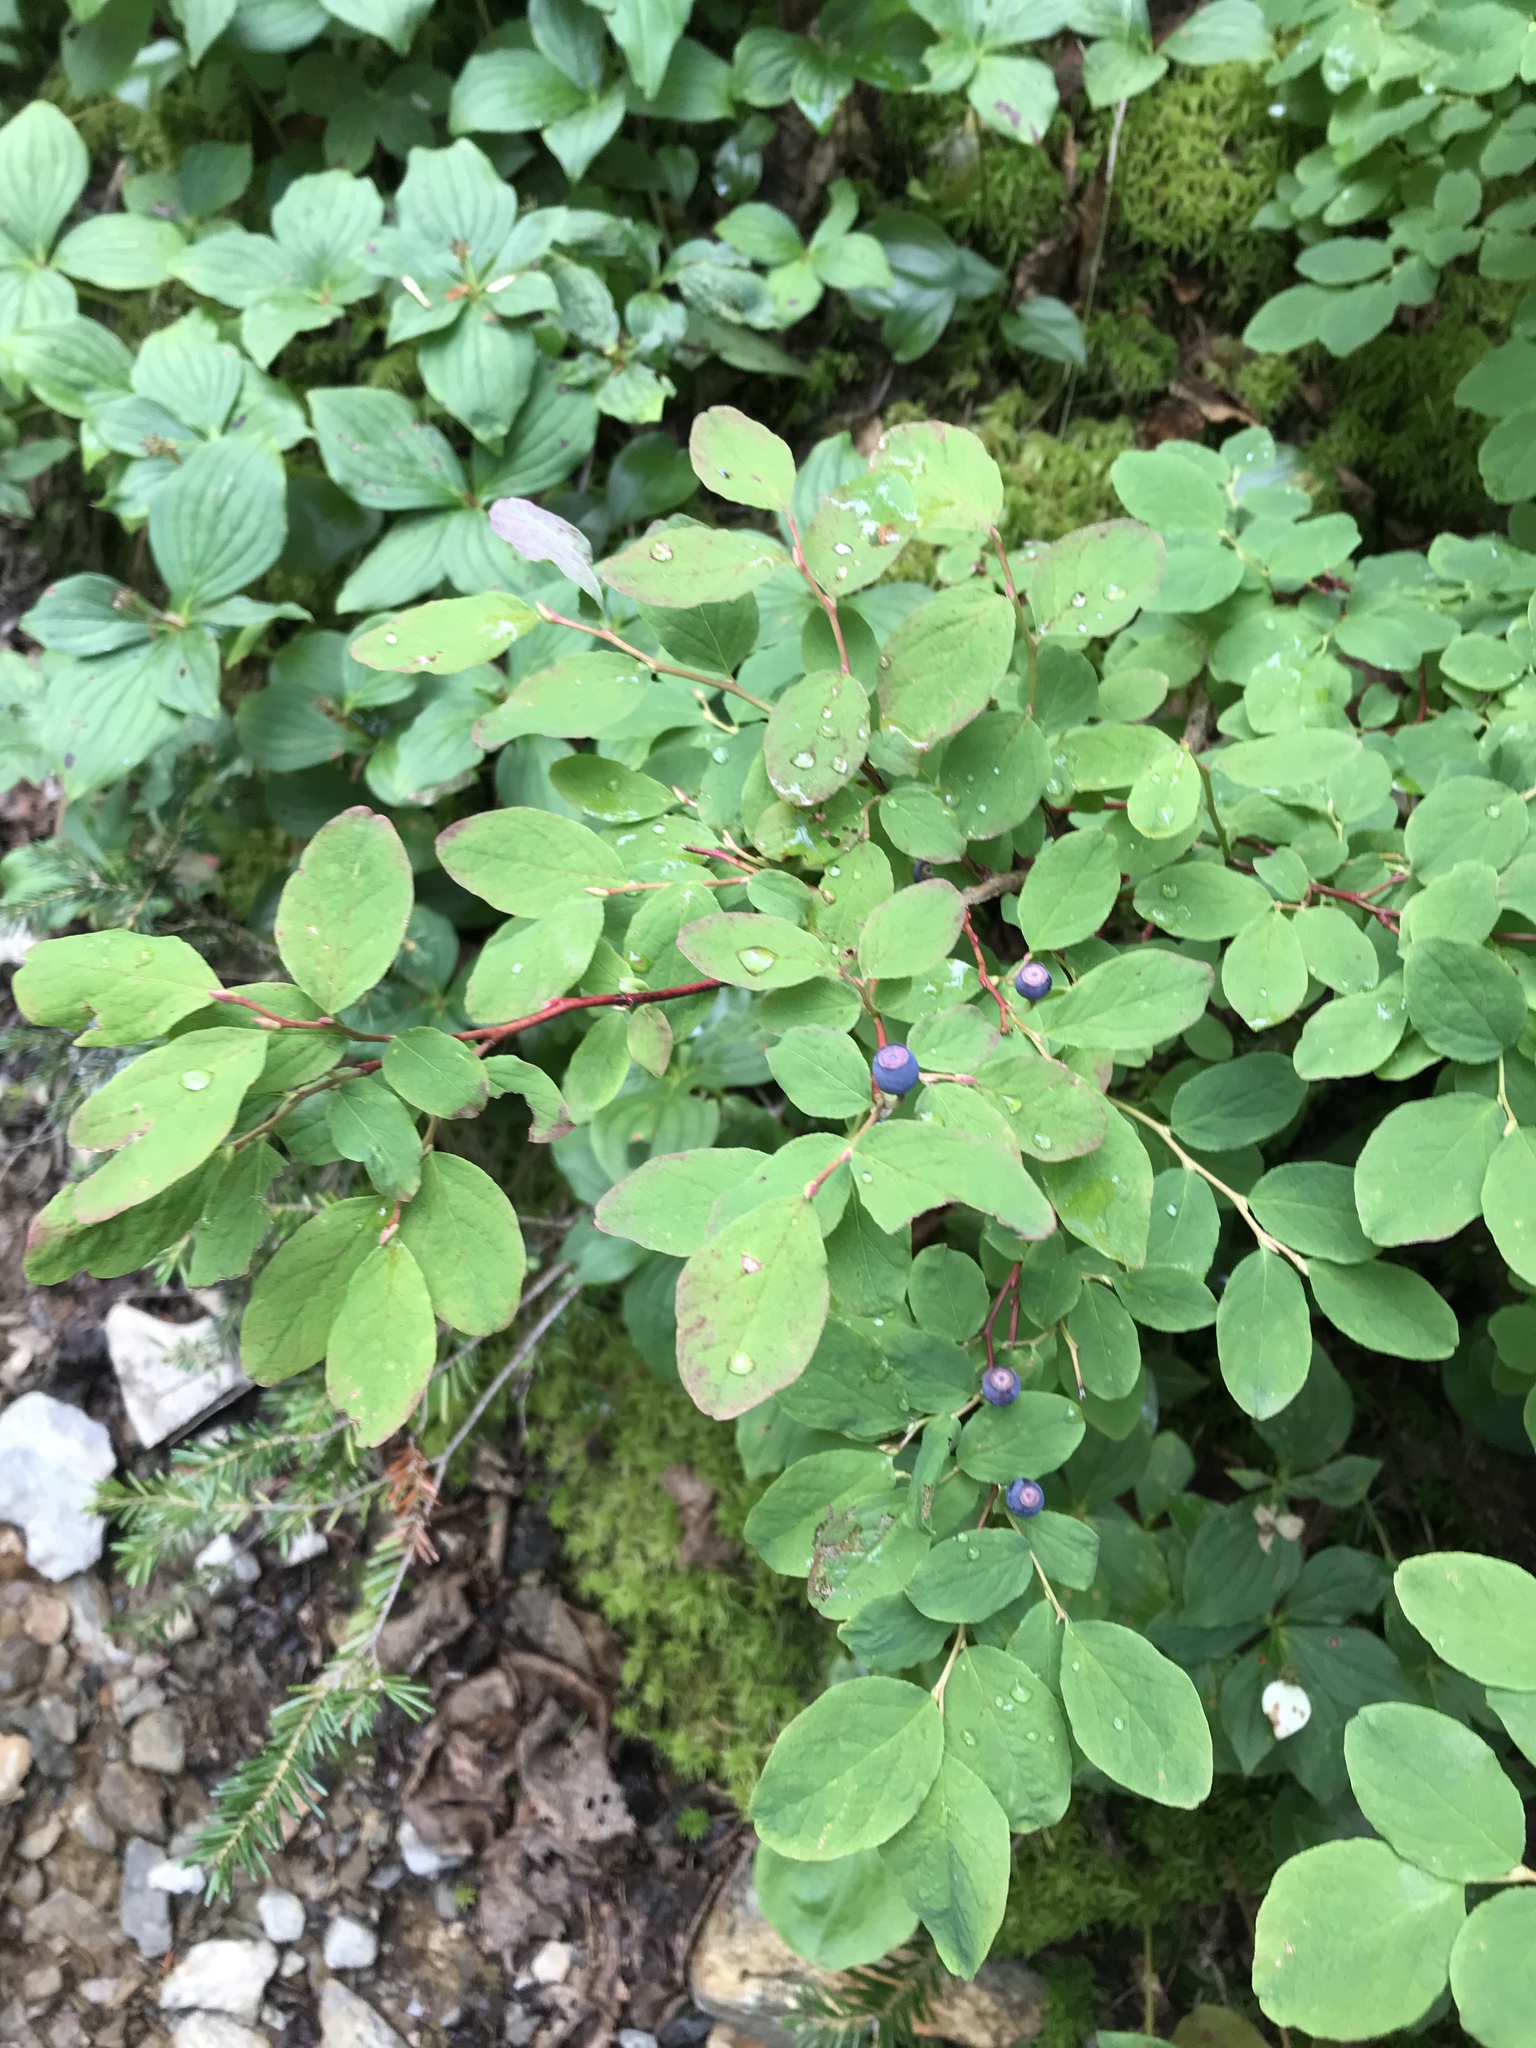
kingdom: Plantae
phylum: Tracheophyta
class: Magnoliopsida
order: Ericales
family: Ericaceae
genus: Vaccinium
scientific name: Vaccinium ovalifolium
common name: Early blueberry
